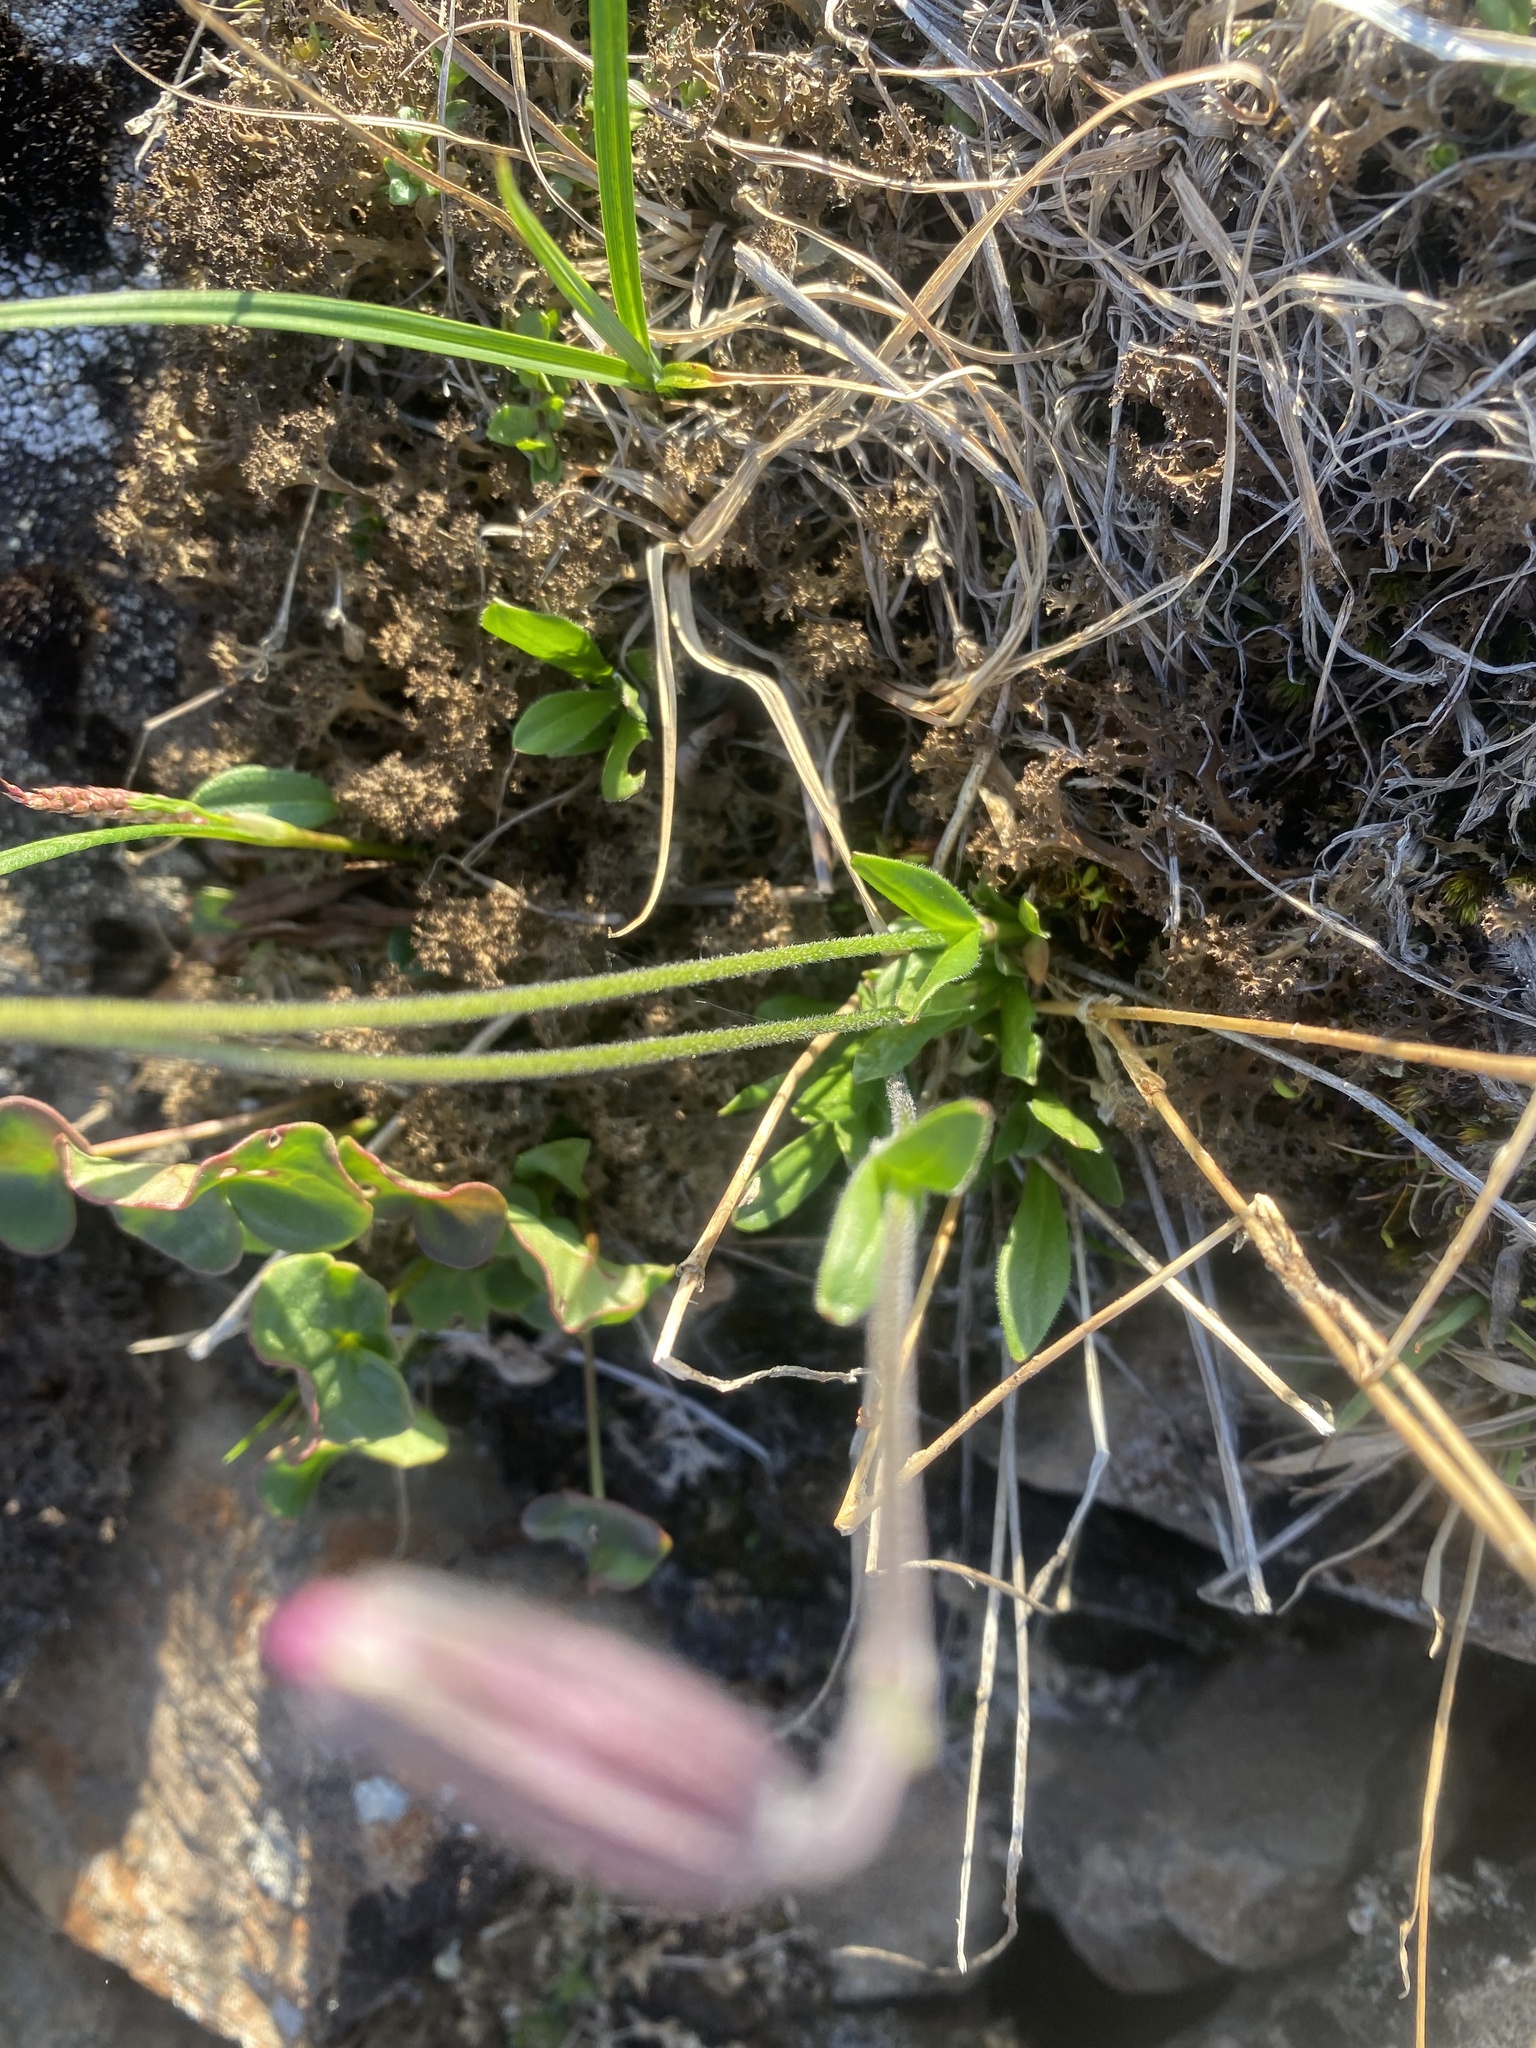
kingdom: Plantae
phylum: Tracheophyta
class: Magnoliopsida
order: Caryophyllales
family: Caryophyllaceae
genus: Silene
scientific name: Silene wahlbergella
